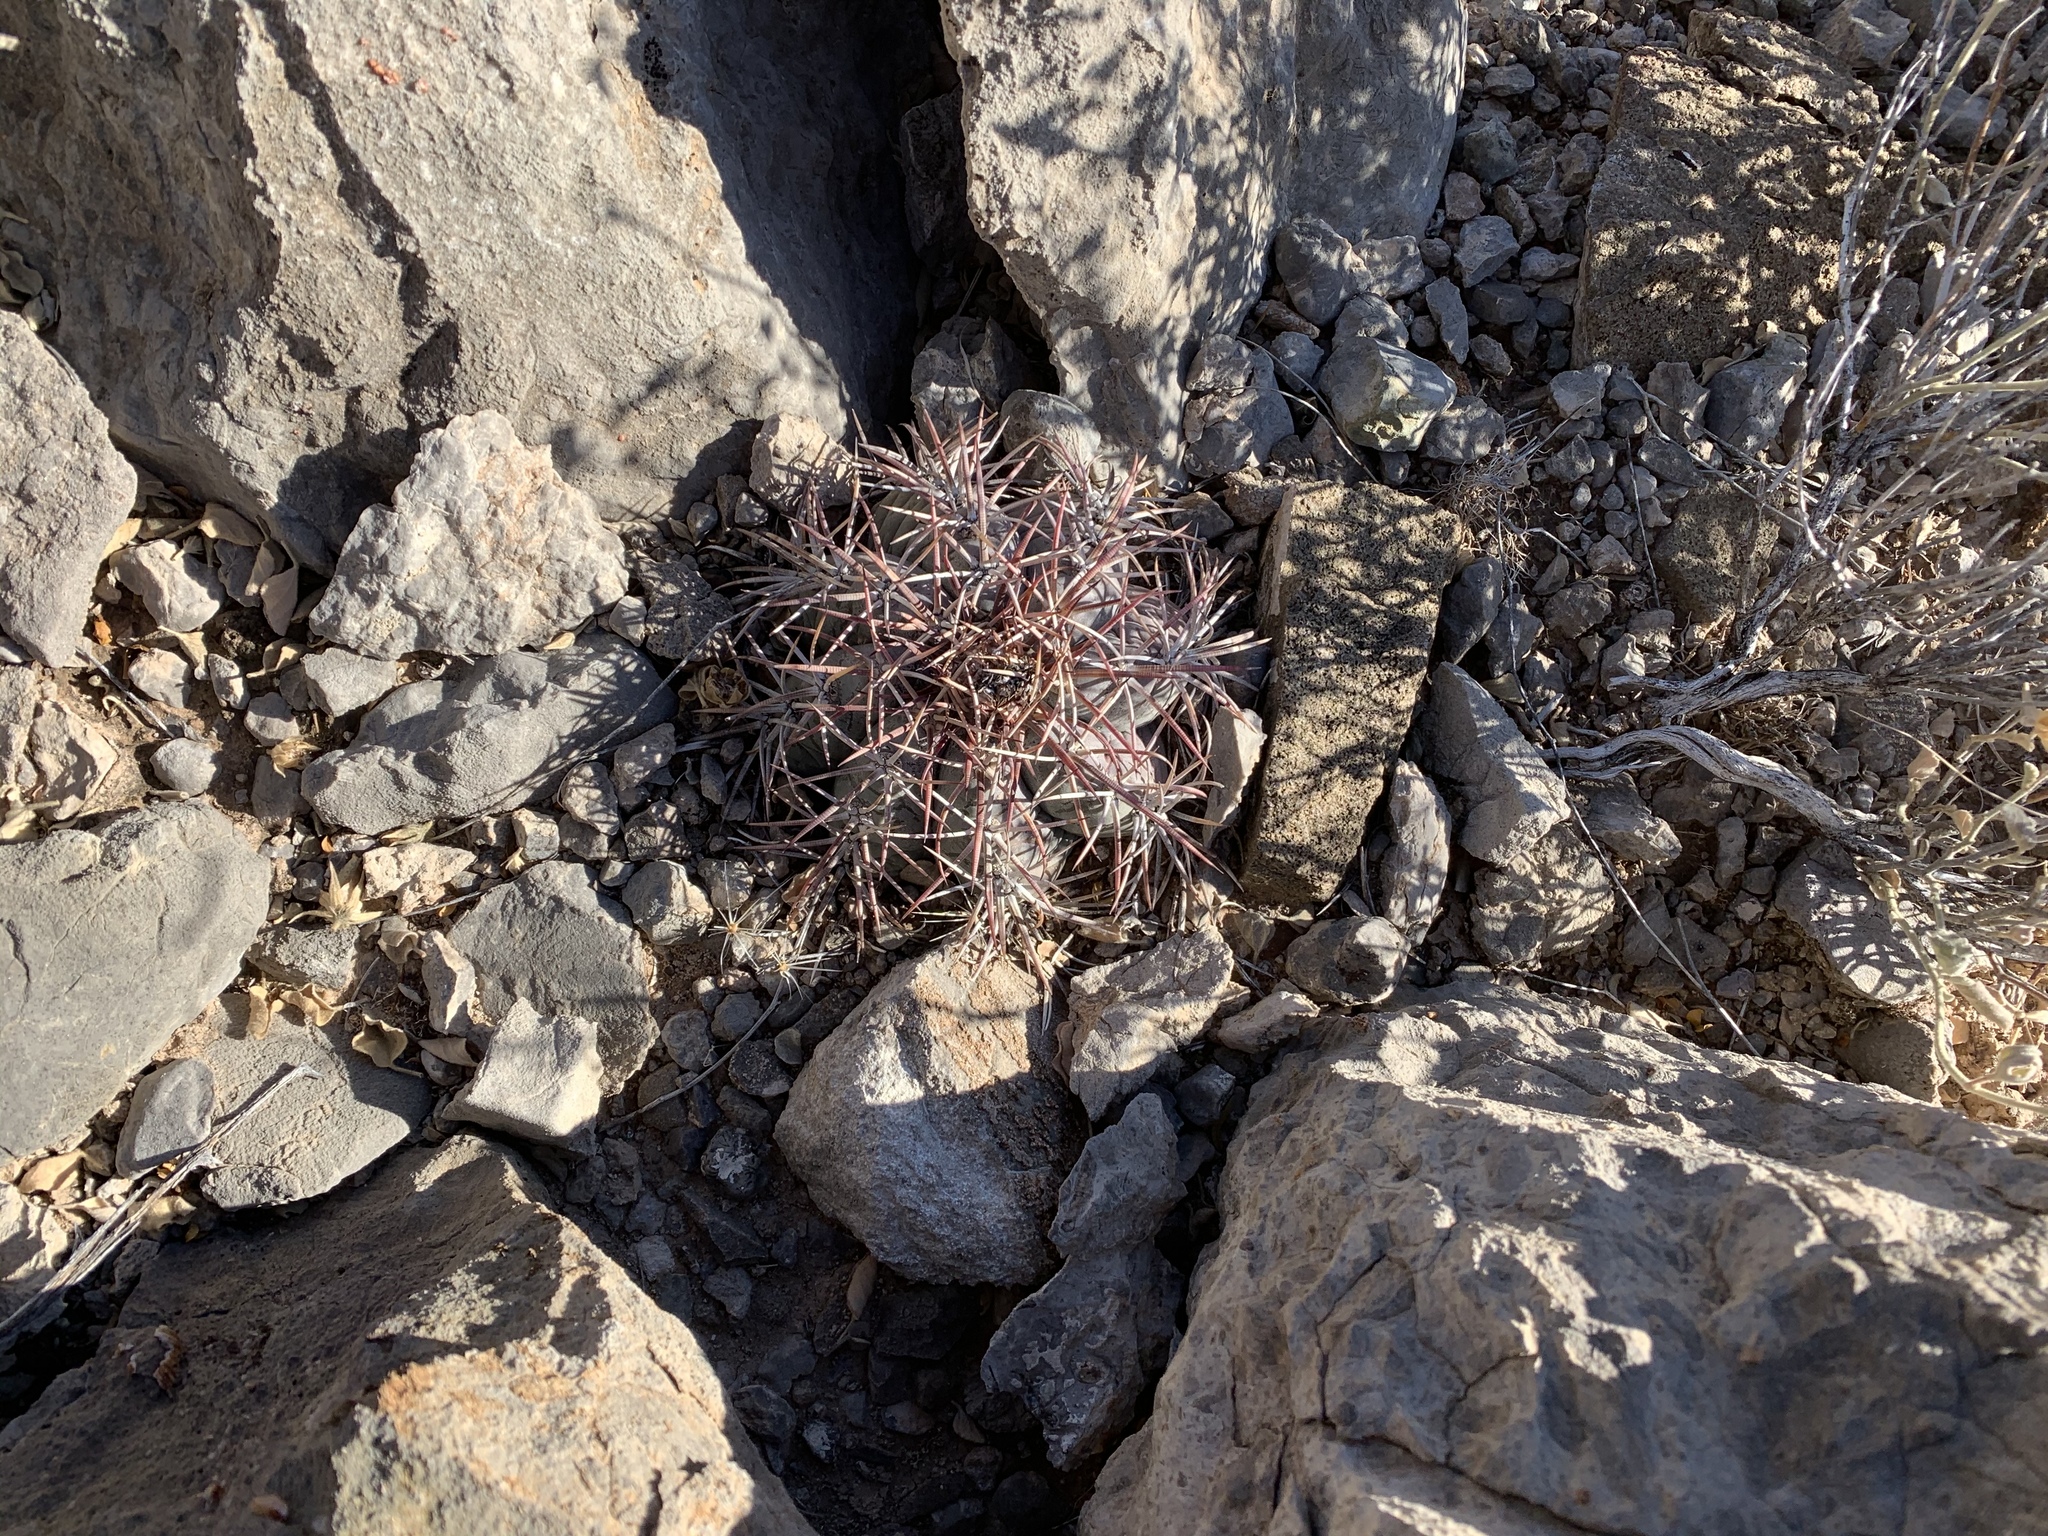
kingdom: Plantae
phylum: Tracheophyta
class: Magnoliopsida
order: Caryophyllales
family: Cactaceae
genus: Echinocactus
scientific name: Echinocactus horizonthalonius
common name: Devilshead
